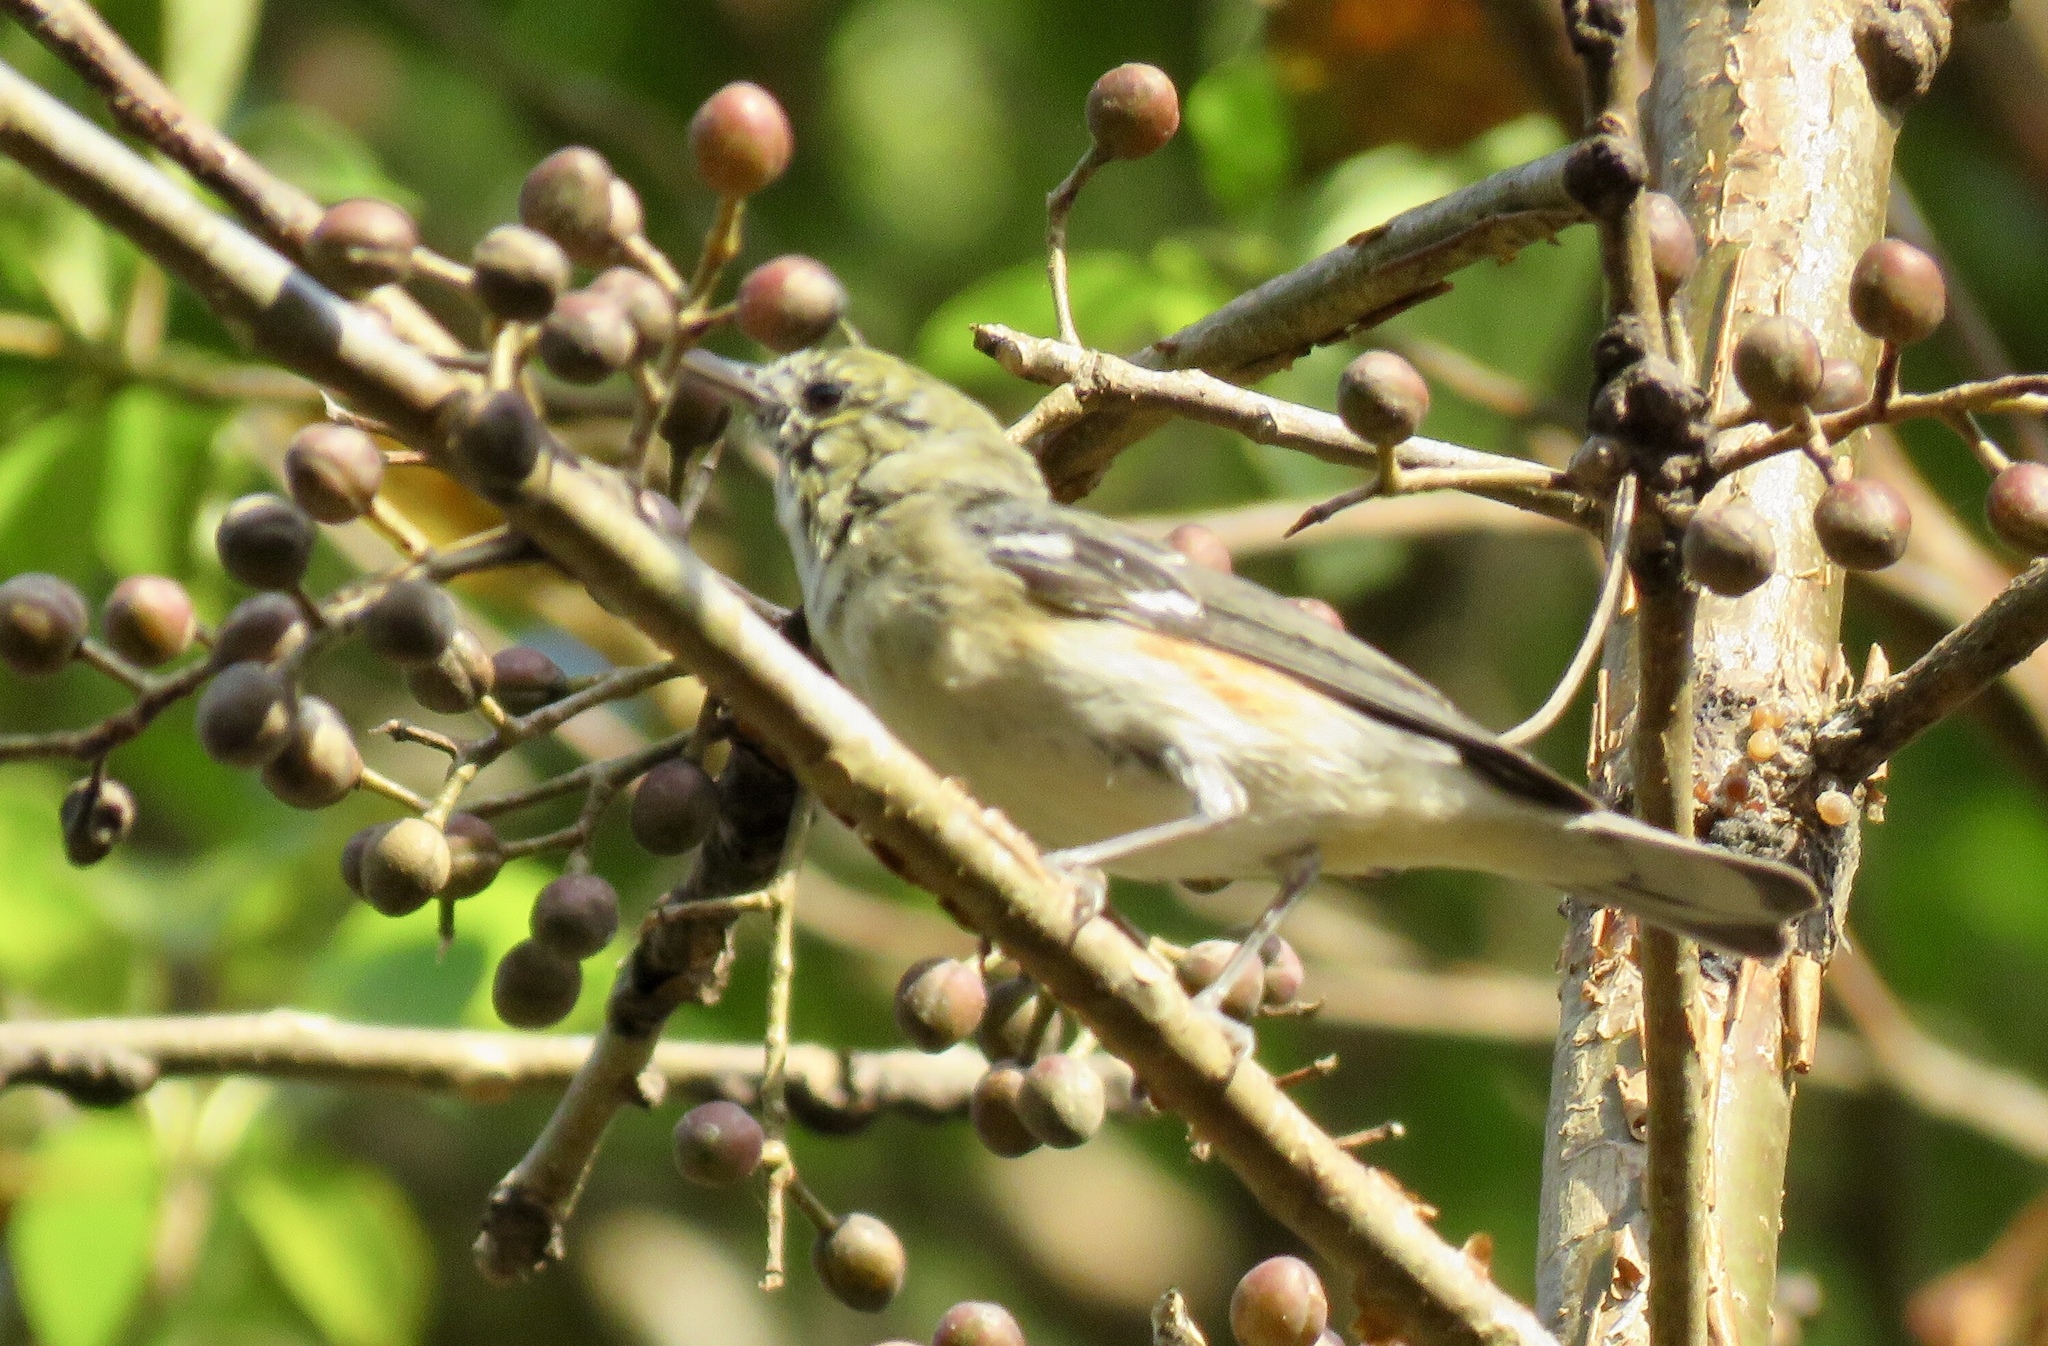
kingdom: Animalia
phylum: Chordata
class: Aves
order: Passeriformes
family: Parulidae
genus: Setophaga
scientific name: Setophaga castanea
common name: Bay-breasted warbler
